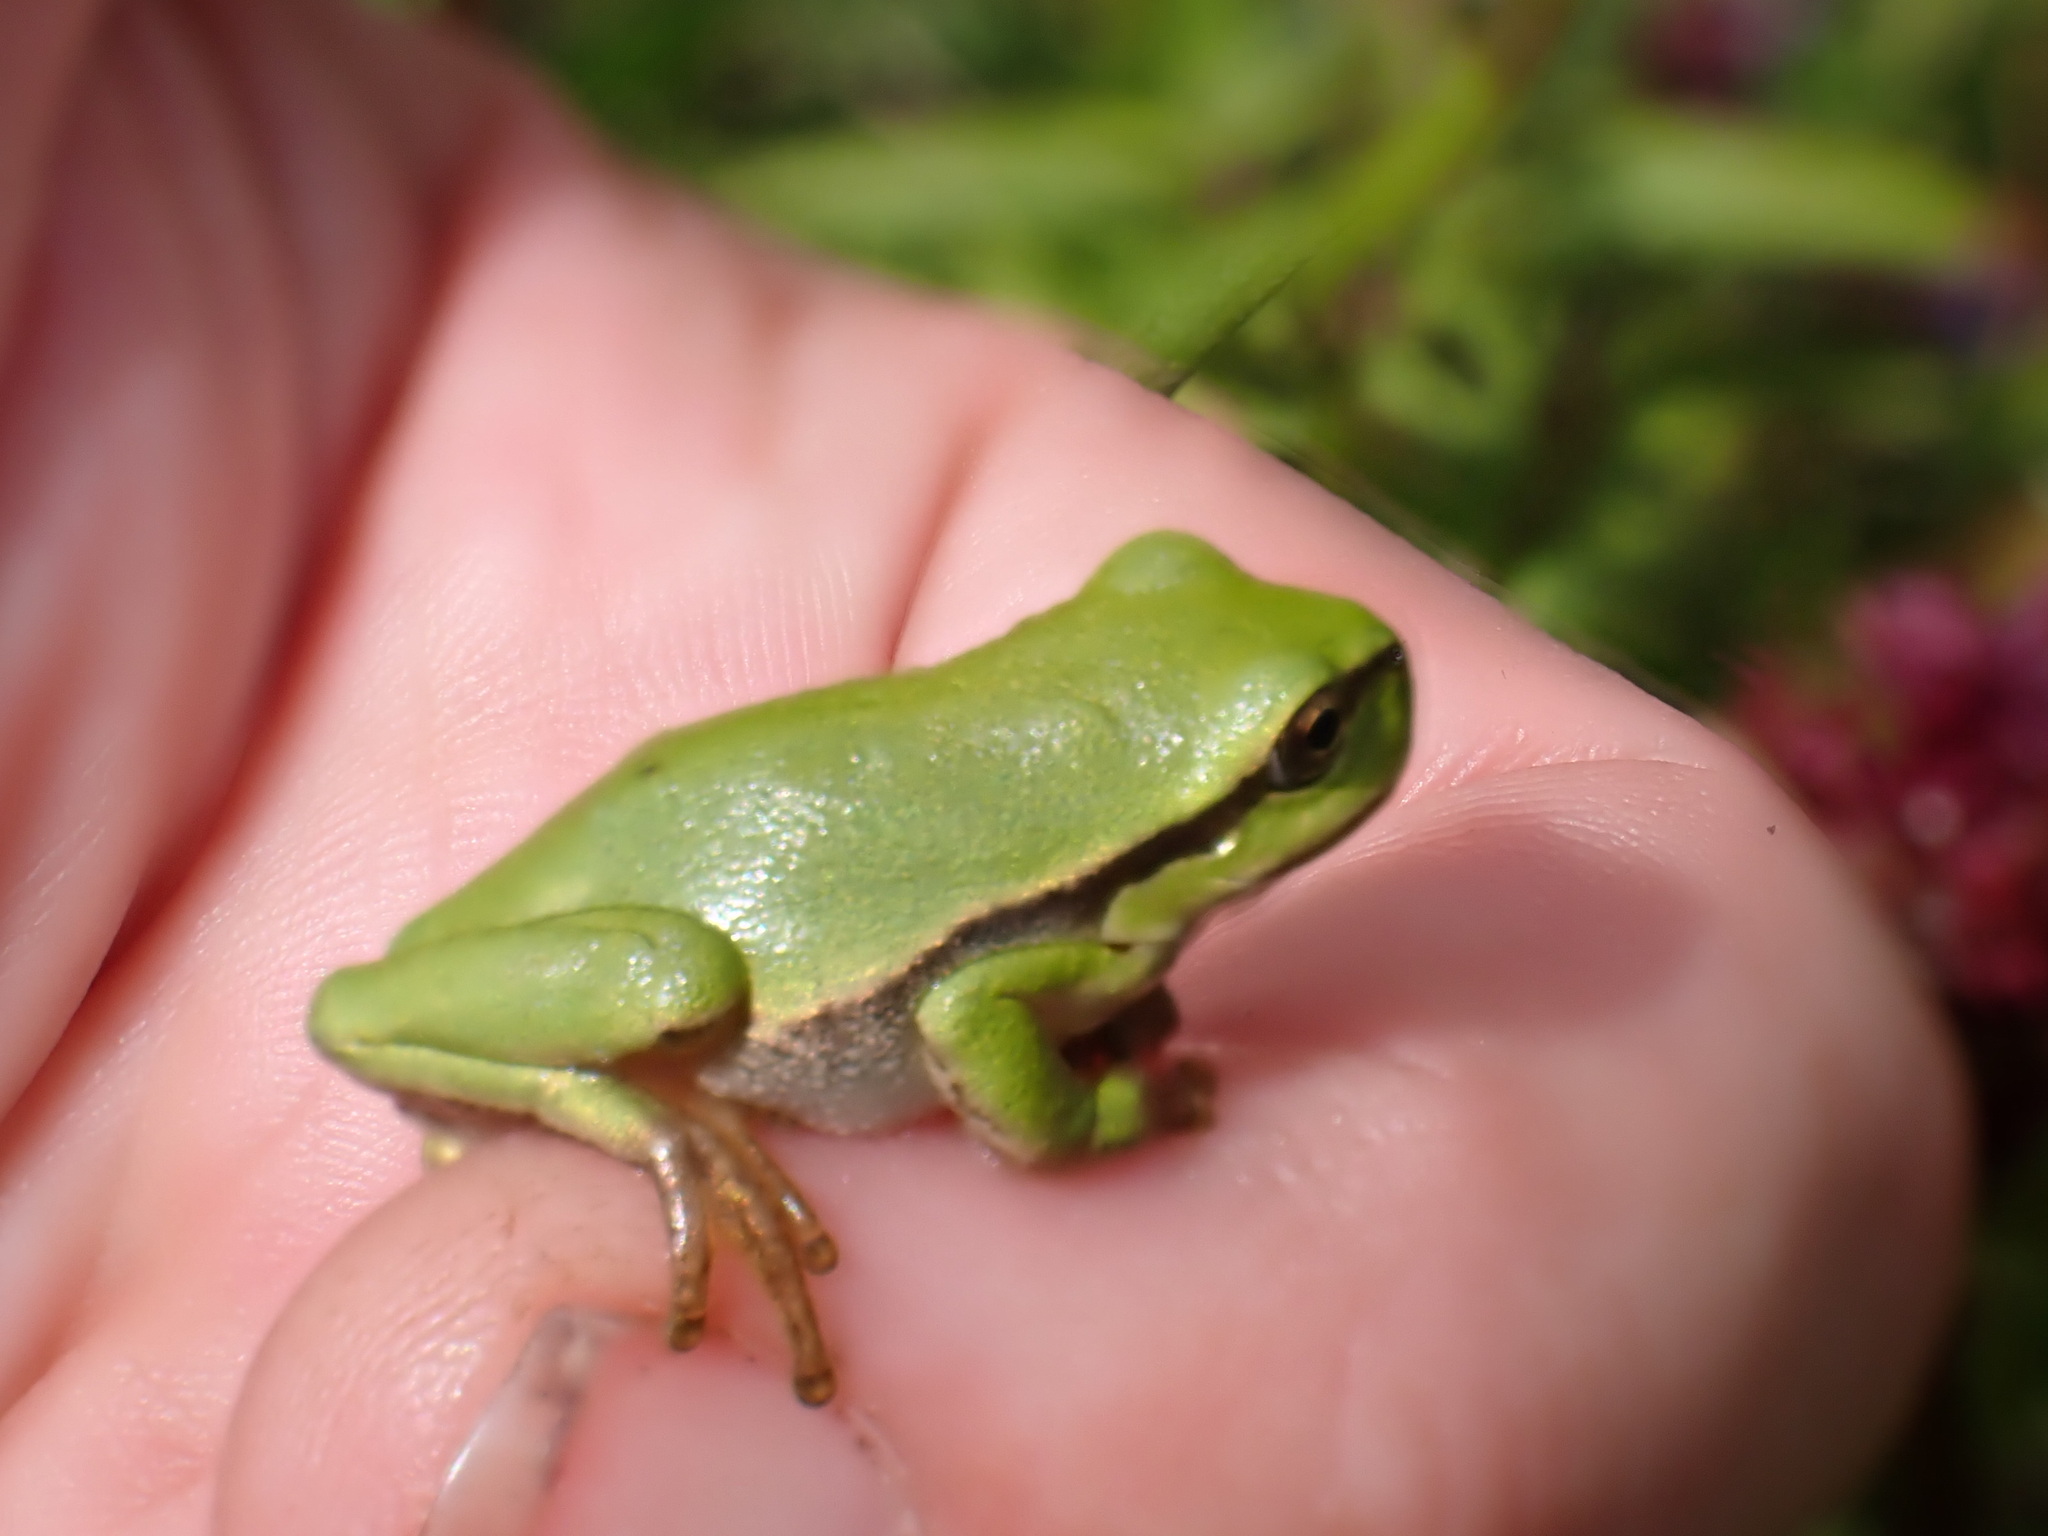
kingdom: Animalia
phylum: Chordata
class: Amphibia
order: Anura
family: Hylidae
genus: Hyla
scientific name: Hyla arborea
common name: Common tree frog
